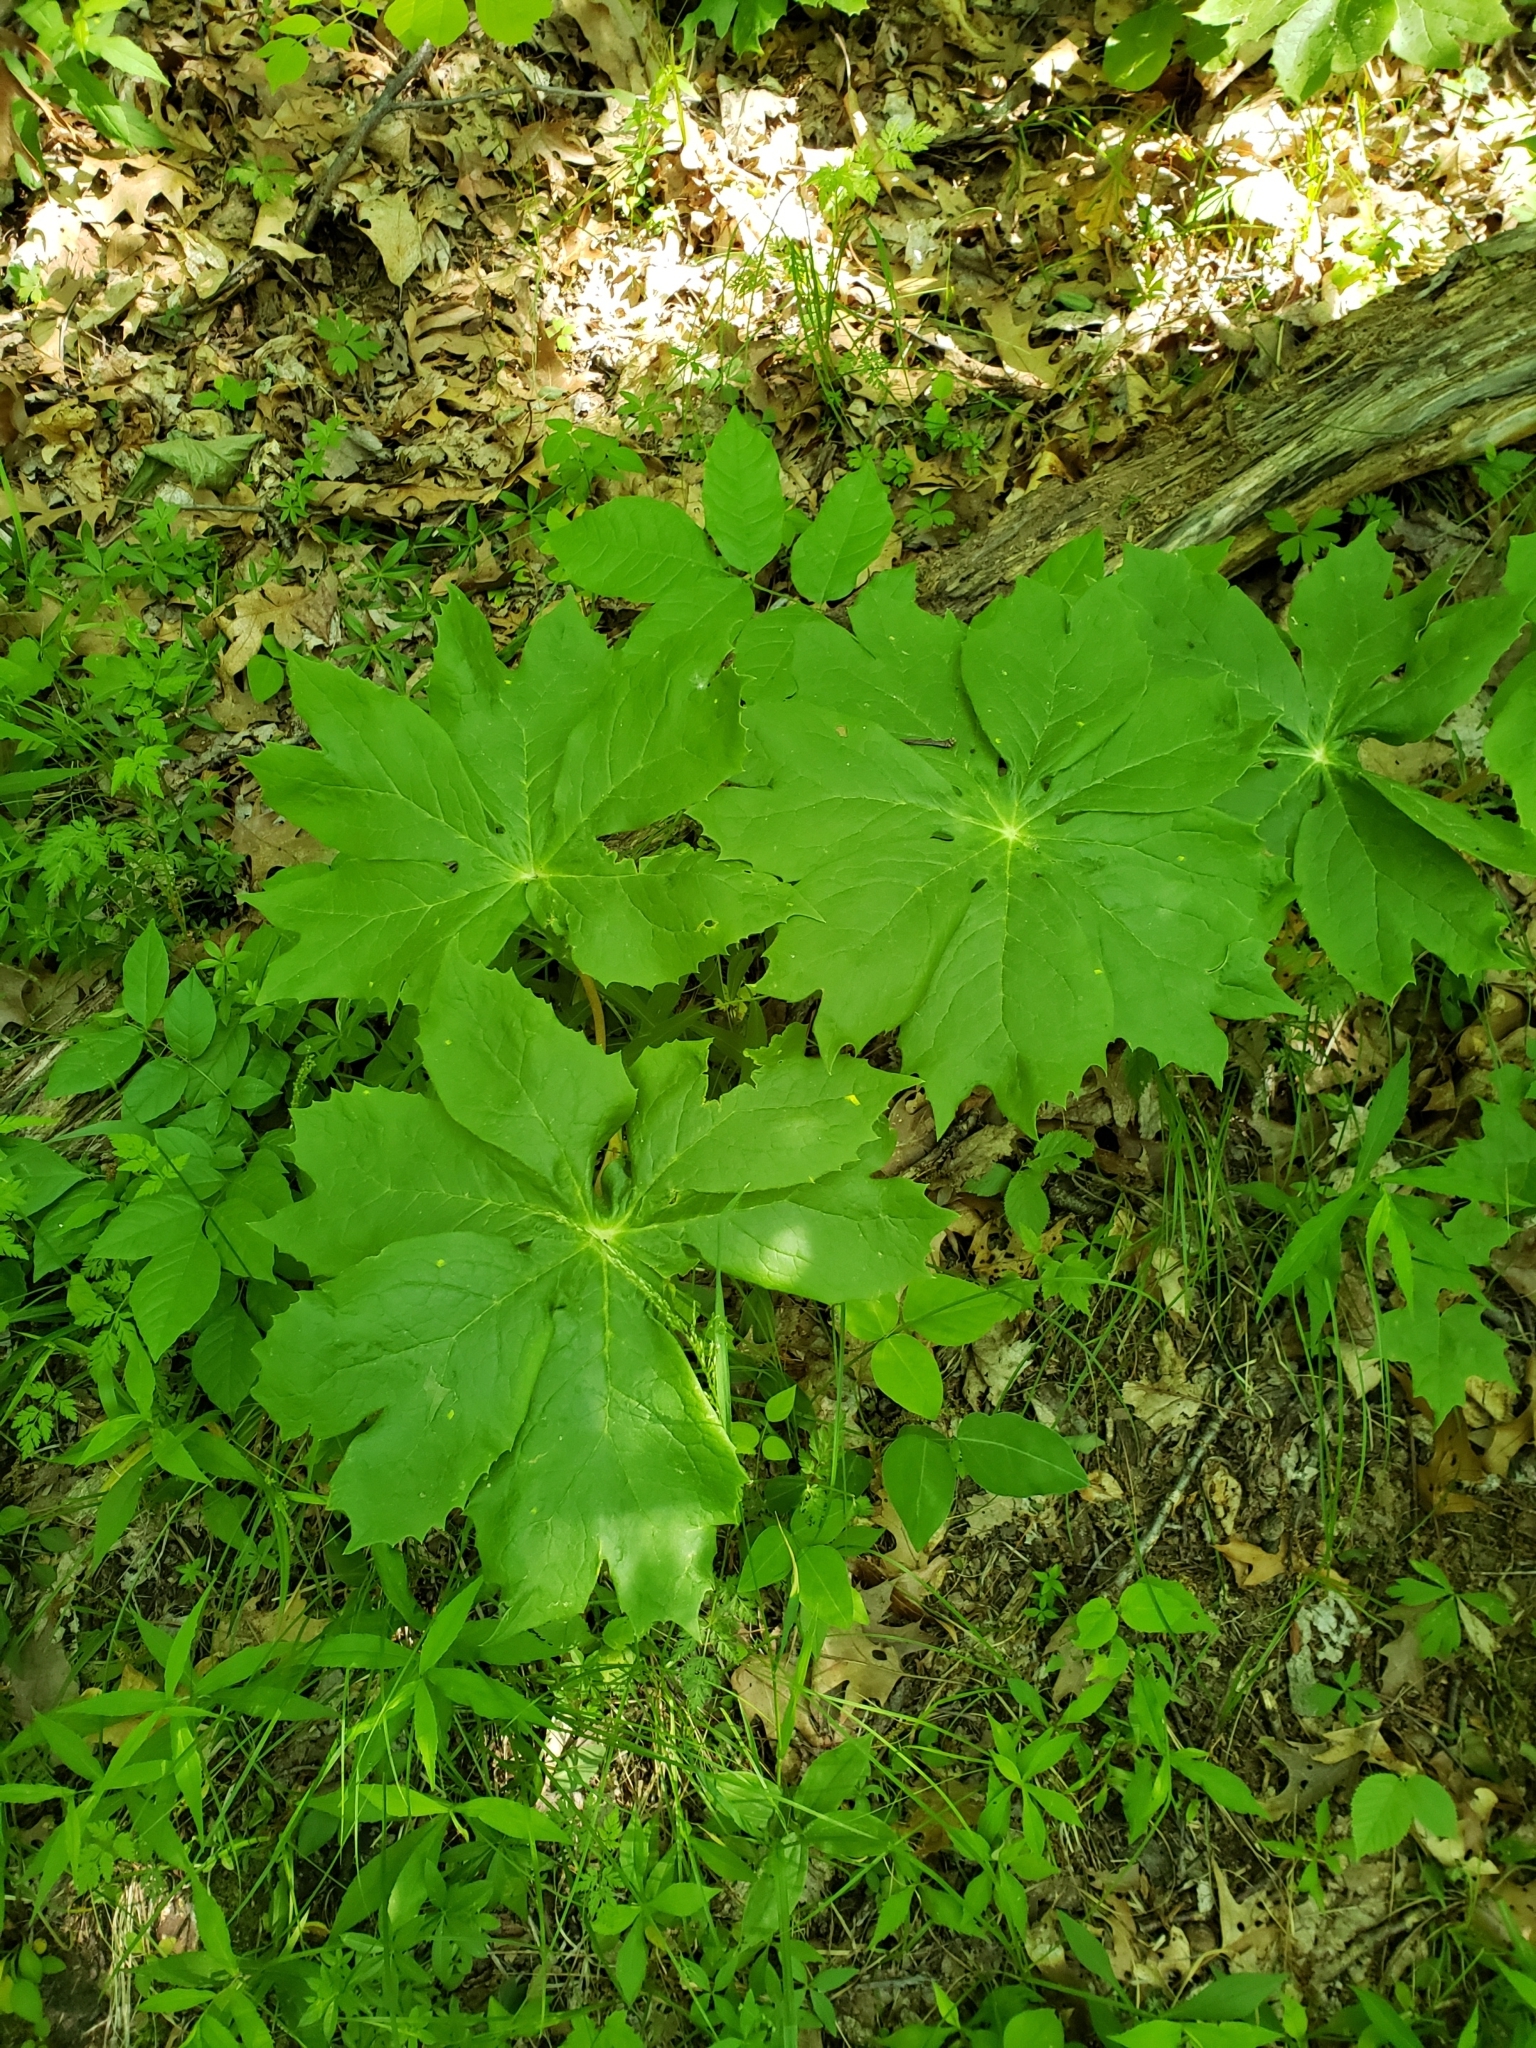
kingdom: Plantae
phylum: Tracheophyta
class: Magnoliopsida
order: Ranunculales
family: Berberidaceae
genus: Podophyllum
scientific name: Podophyllum peltatum
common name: Wild mandrake
